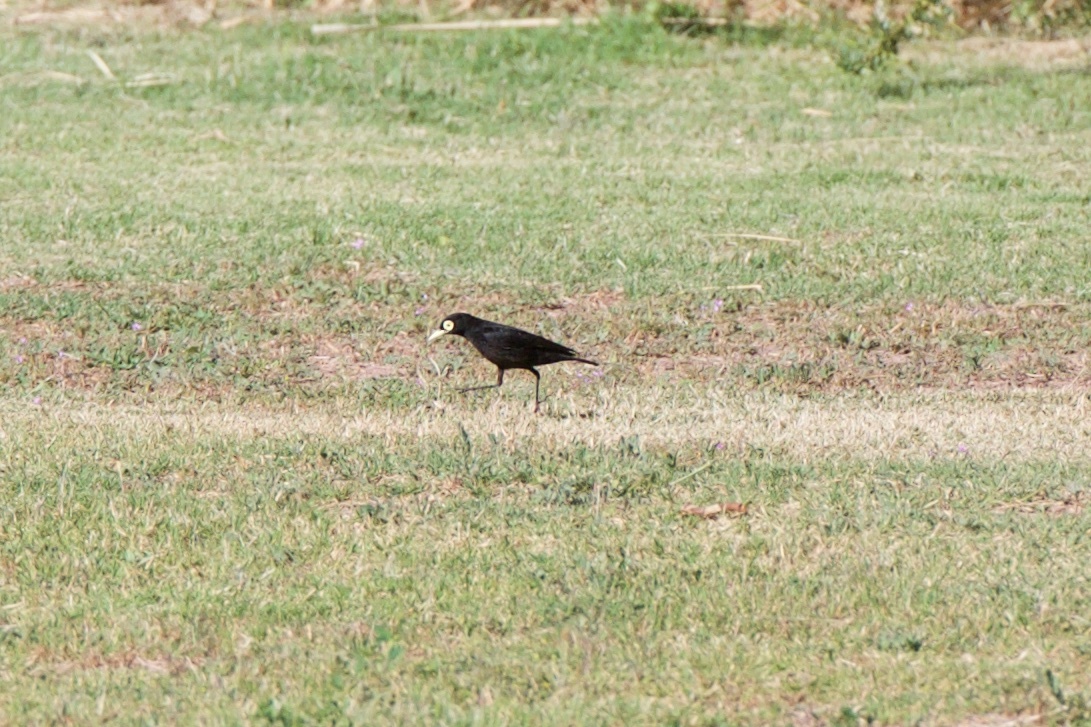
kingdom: Animalia
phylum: Chordata
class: Aves
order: Passeriformes
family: Tyrannidae
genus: Hymenops
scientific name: Hymenops perspicillatus
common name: Spectacled tyrant
